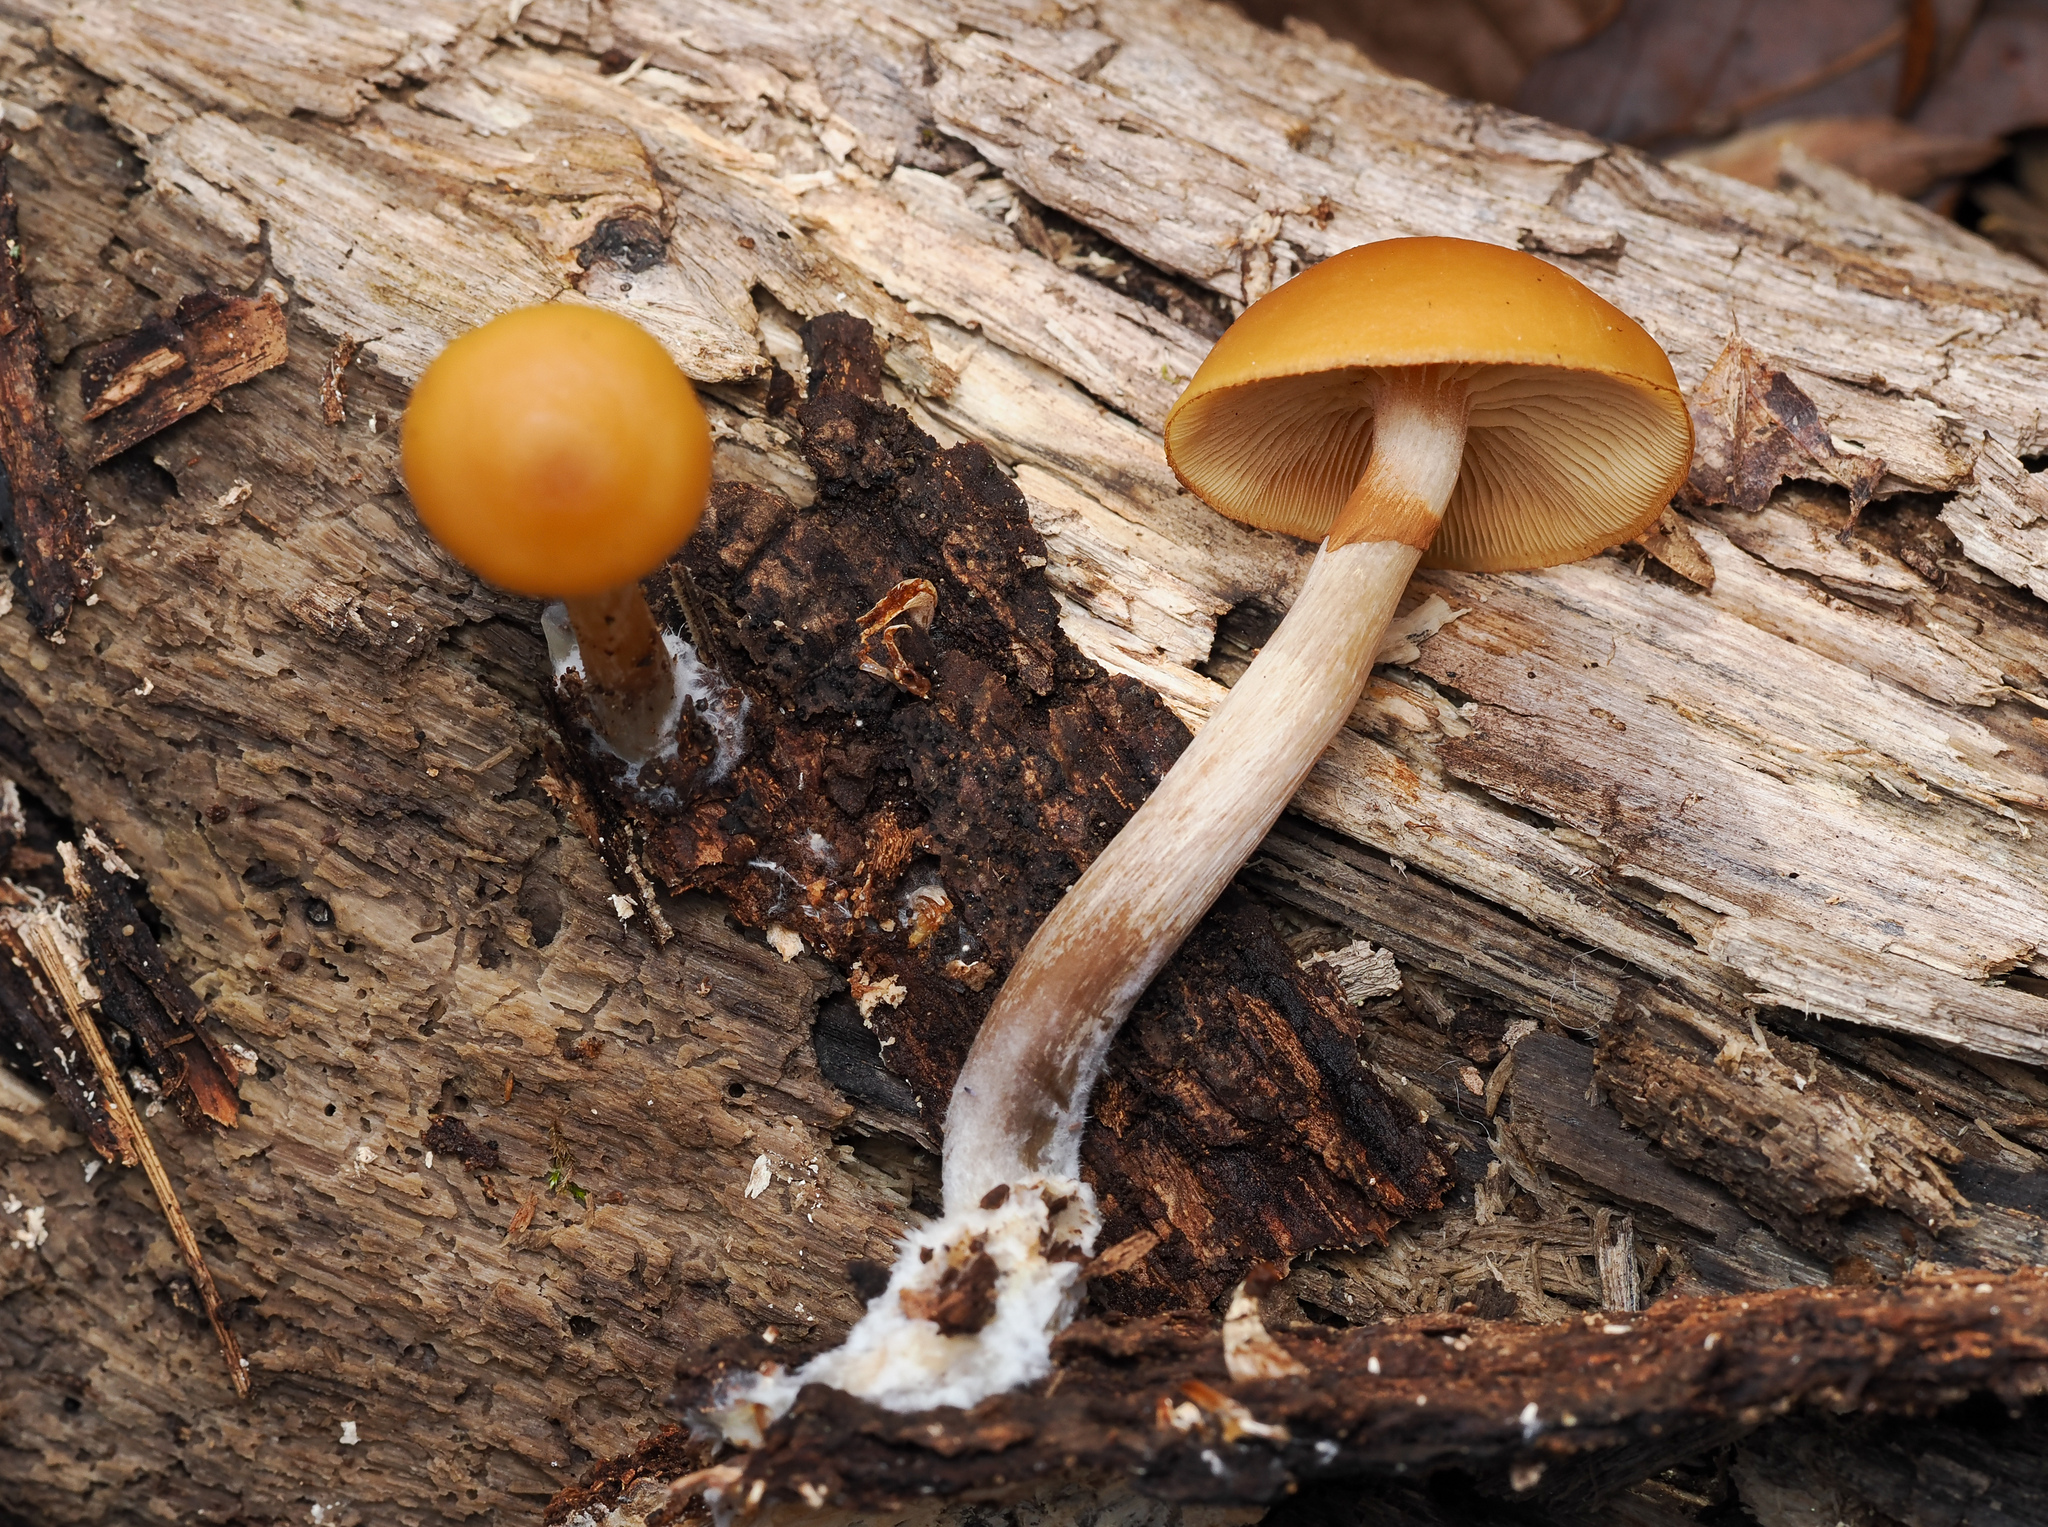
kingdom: Fungi
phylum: Basidiomycota
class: Agaricomycetes
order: Agaricales
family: Hymenogastraceae
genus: Galerina
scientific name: Galerina marginata
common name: Funeral bell
